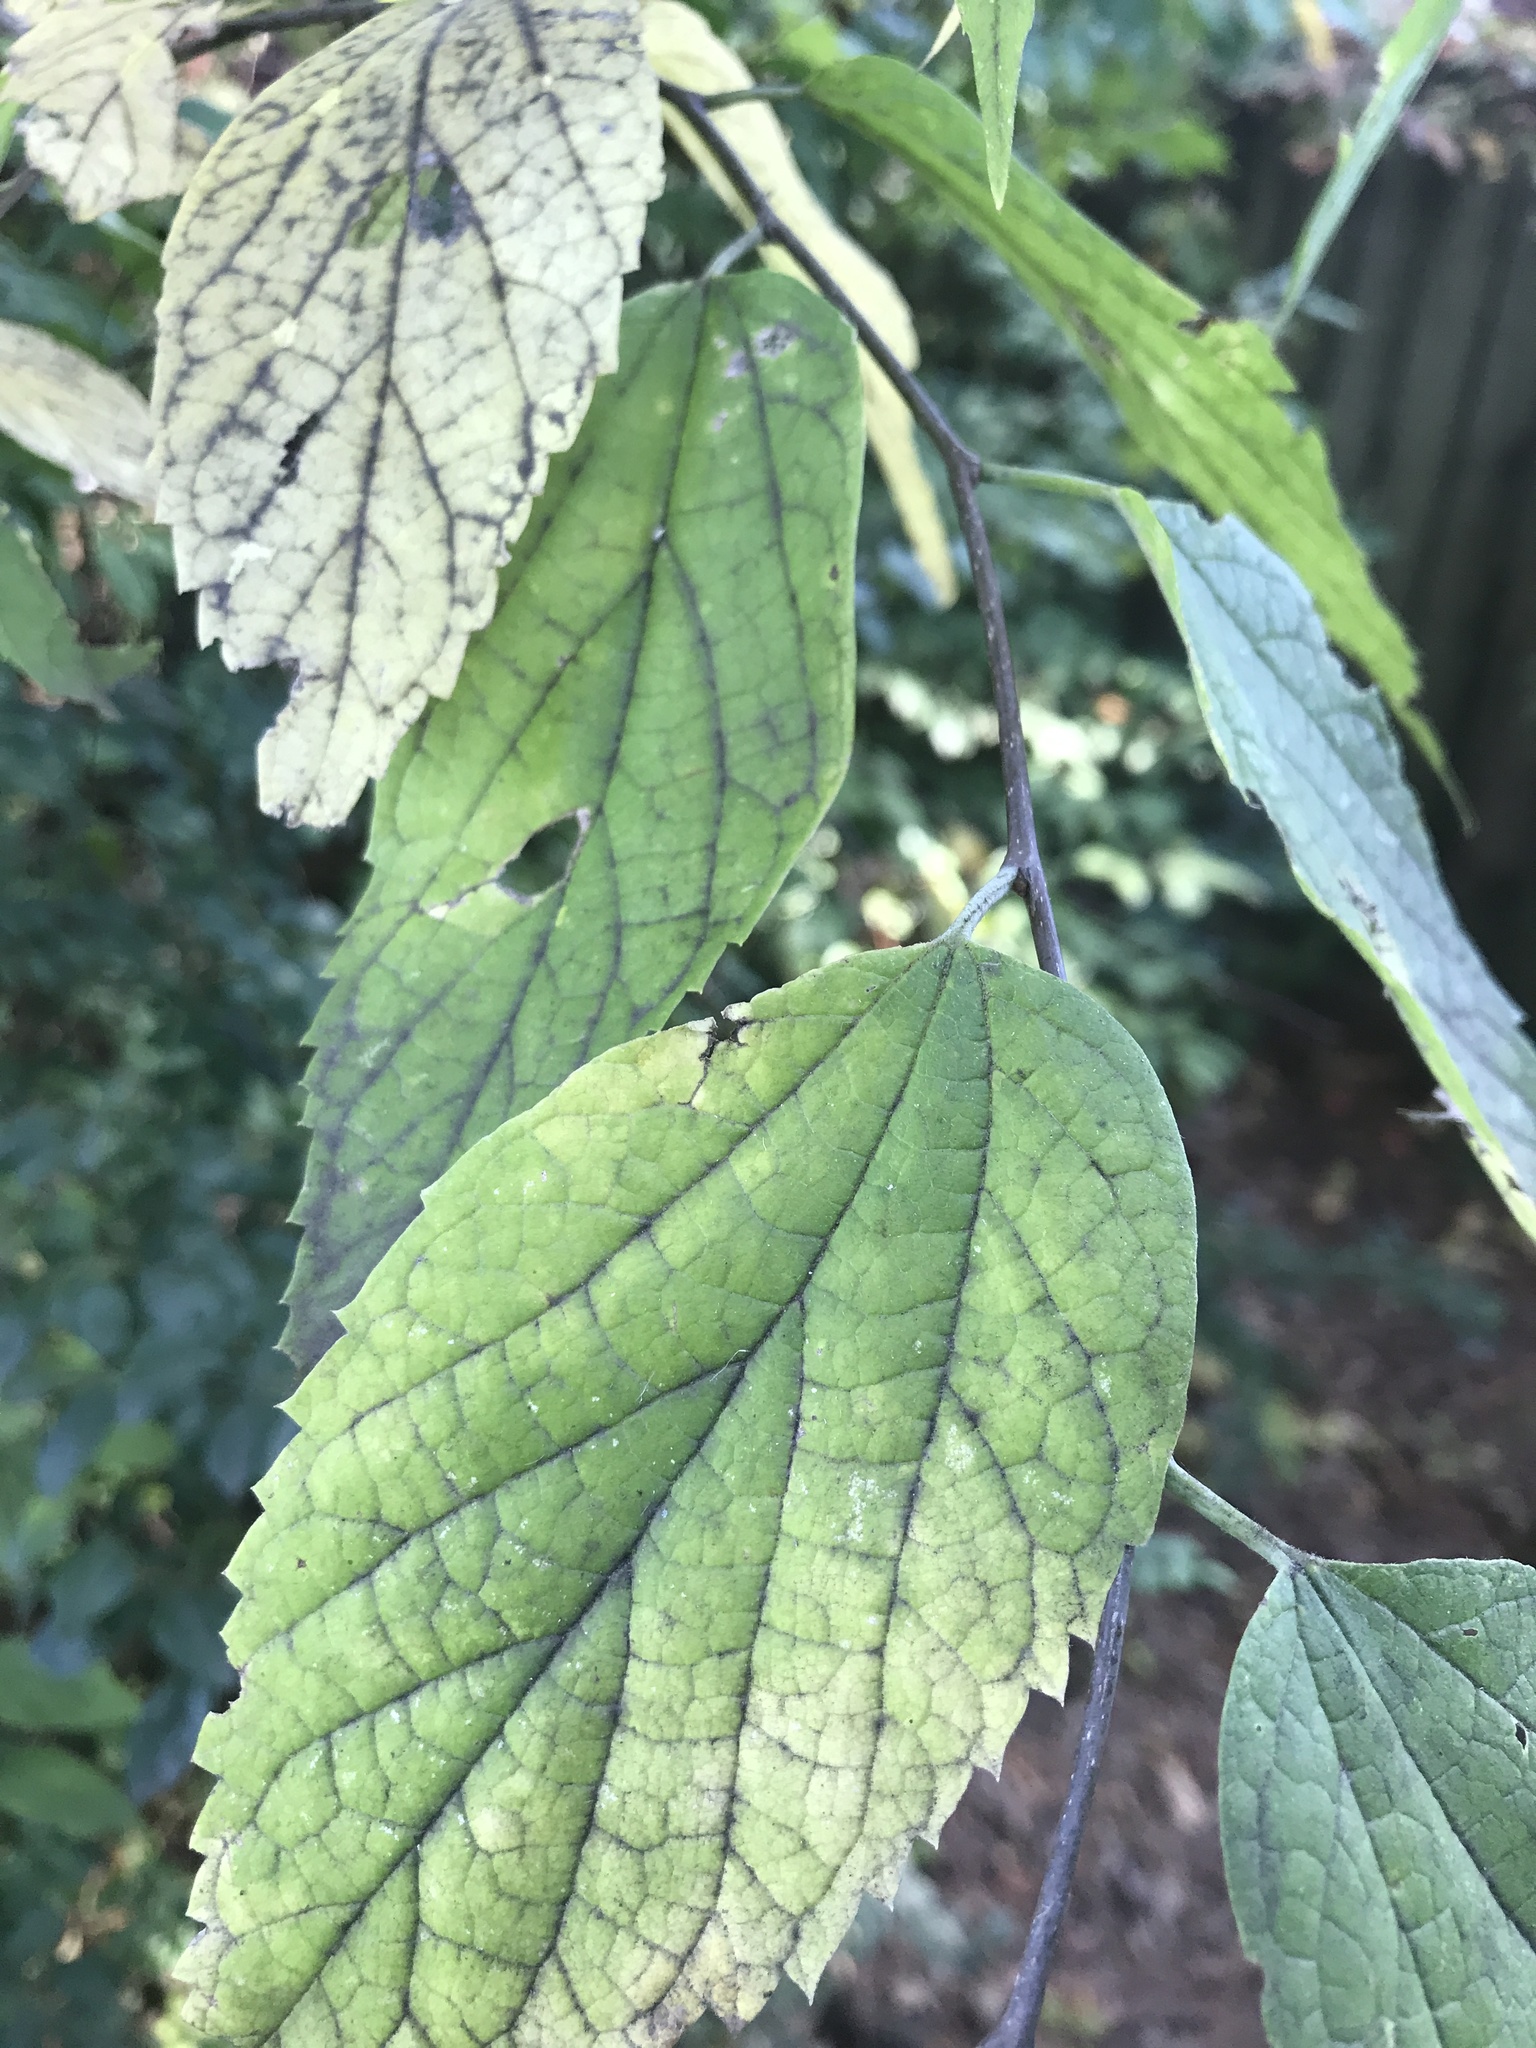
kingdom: Plantae
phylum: Tracheophyta
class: Magnoliopsida
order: Rosales
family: Cannabaceae
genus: Celtis
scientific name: Celtis occidentalis
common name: Common hackberry
